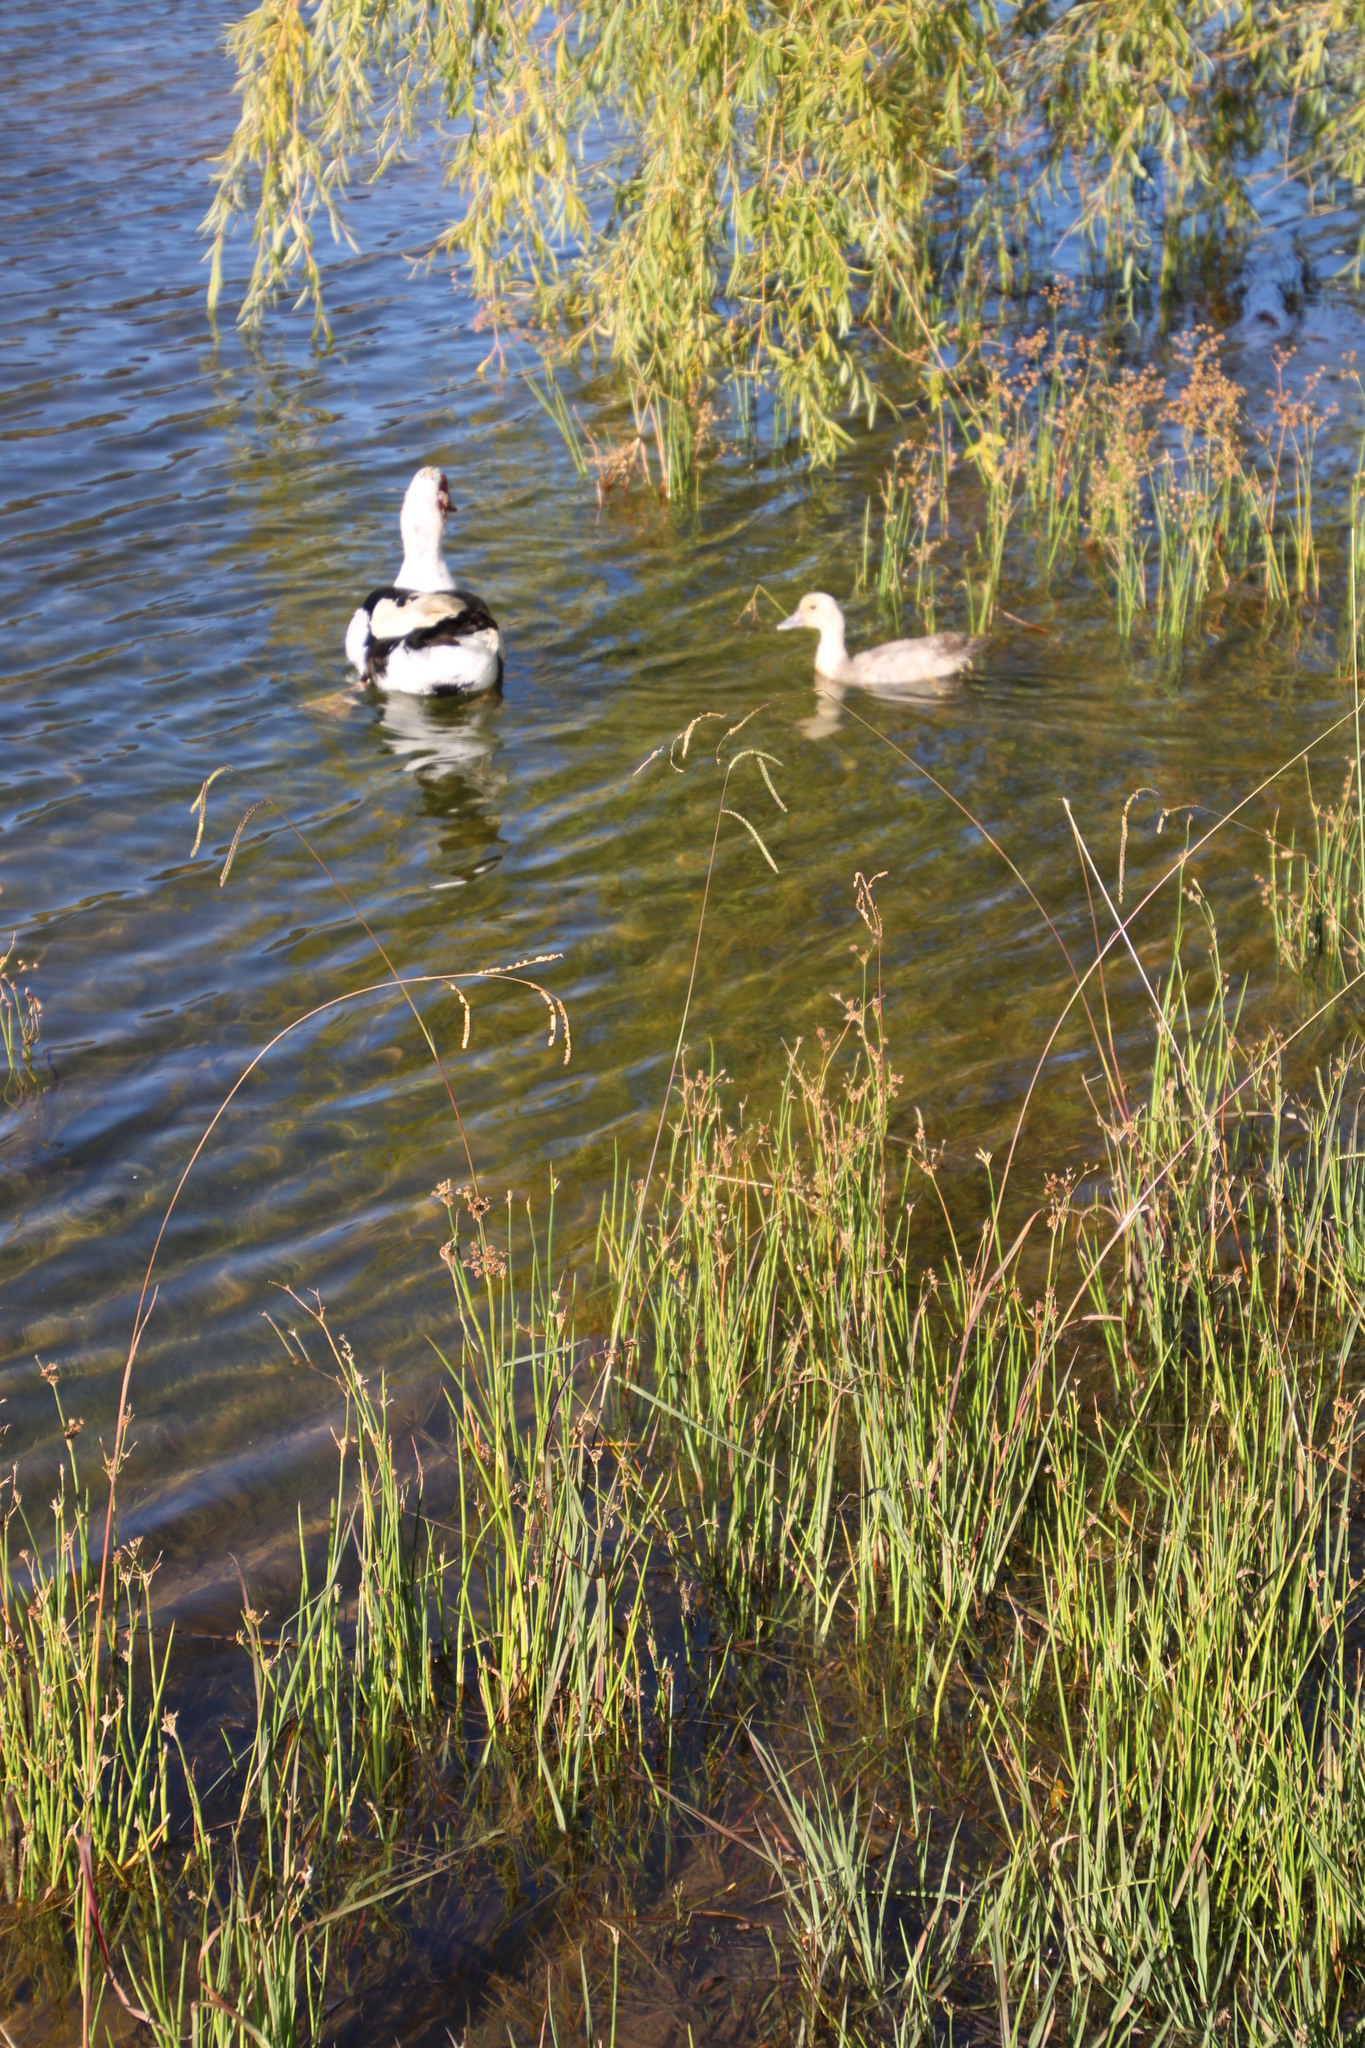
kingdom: Plantae
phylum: Tracheophyta
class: Liliopsida
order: Poales
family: Poaceae
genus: Paspalum
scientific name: Paspalum dilatatum
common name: Dallisgrass
